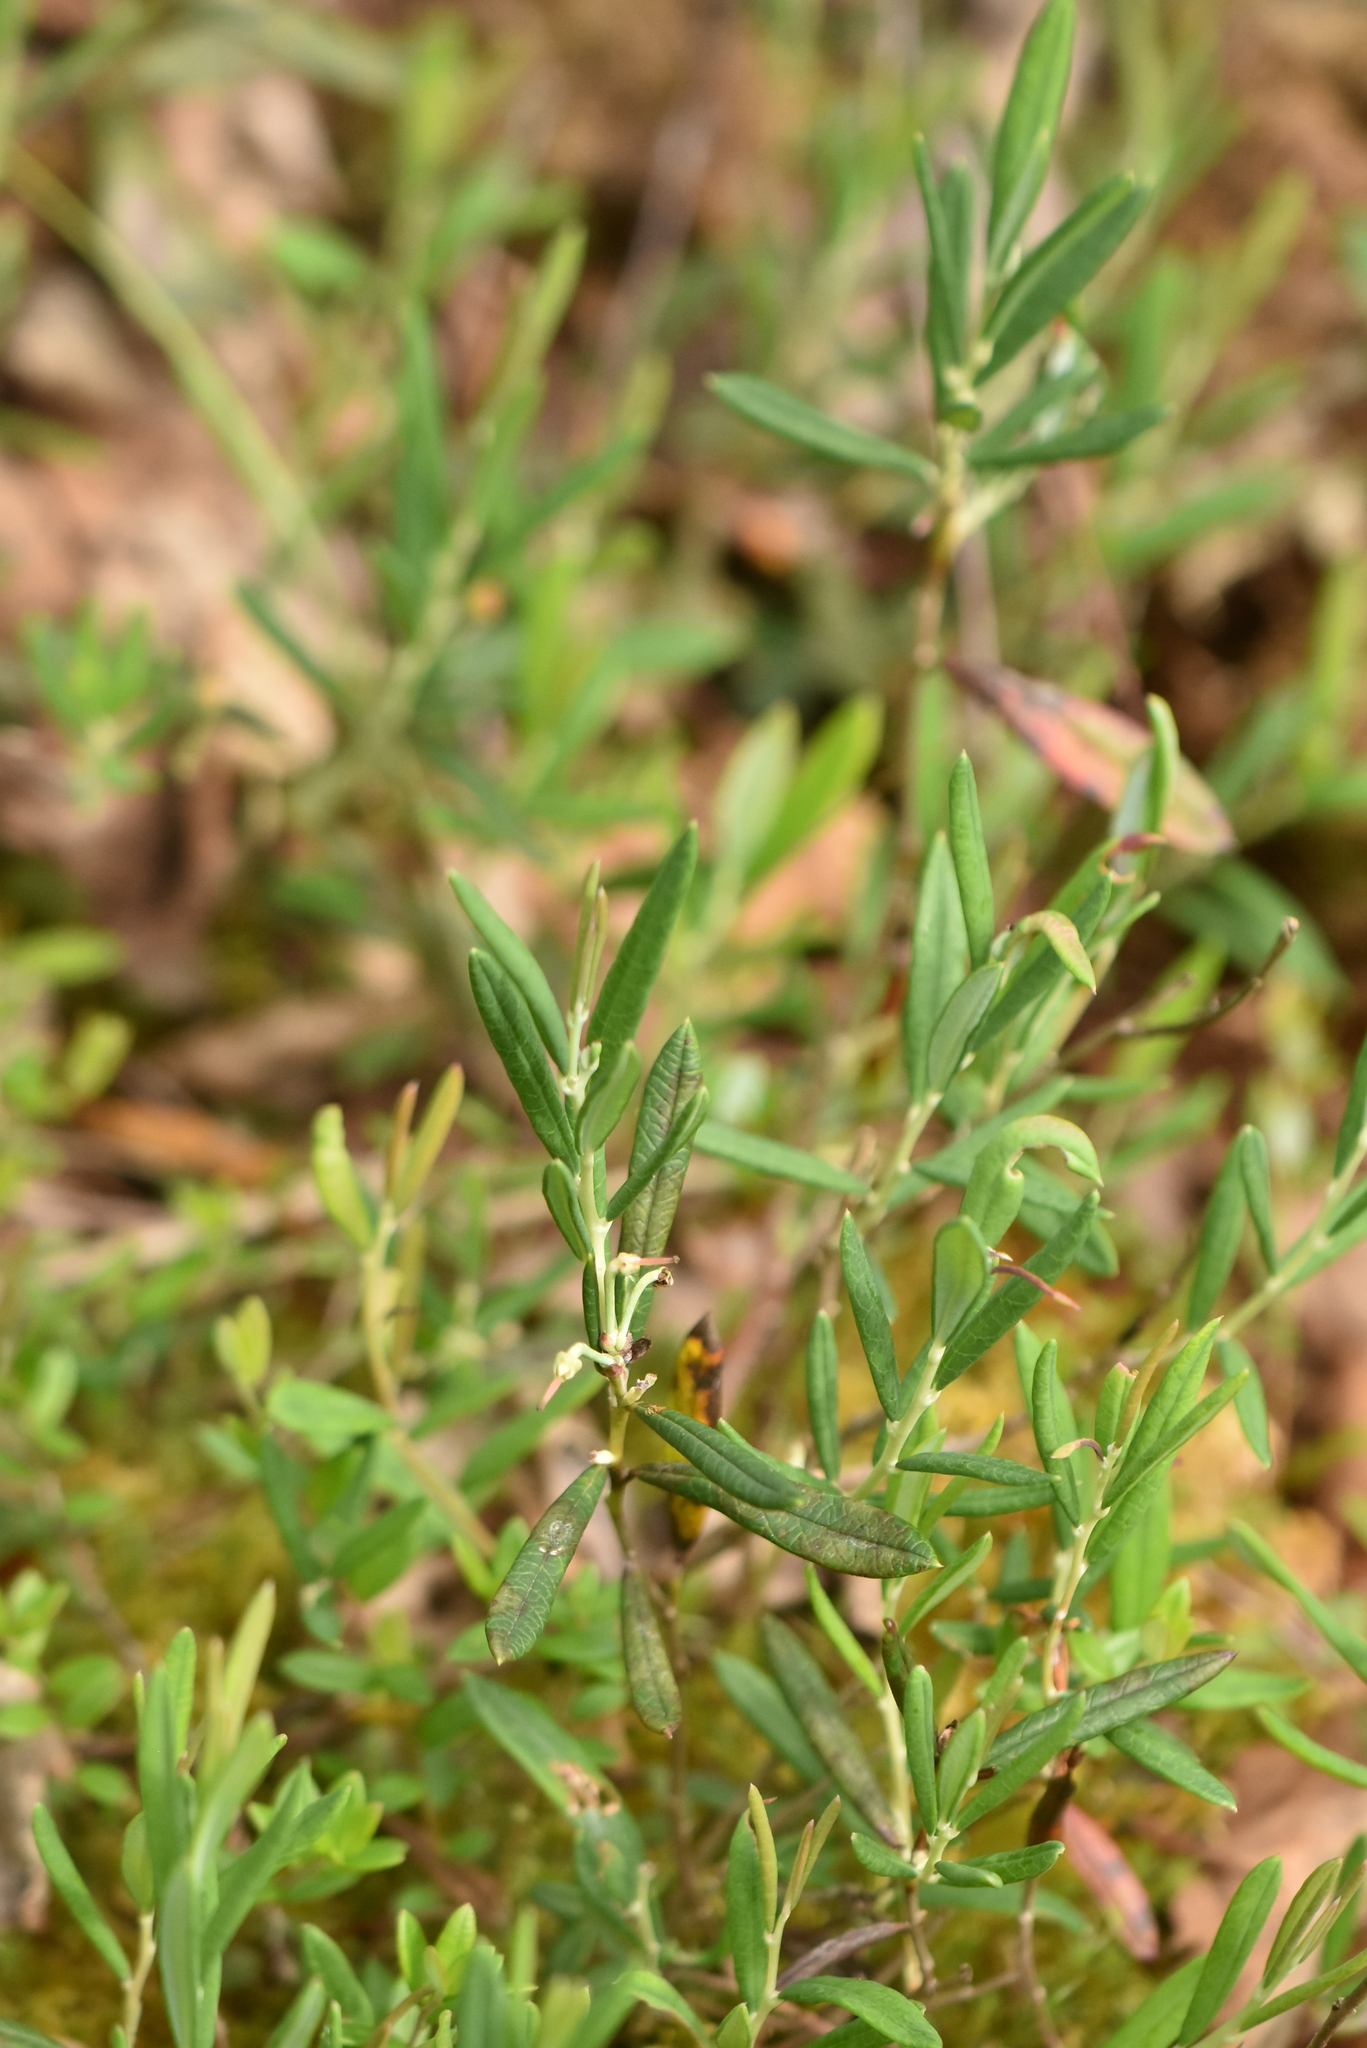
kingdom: Plantae
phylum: Tracheophyta
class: Magnoliopsida
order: Ericales
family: Ericaceae
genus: Andromeda
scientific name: Andromeda polifolia
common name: Bog-rosemary
